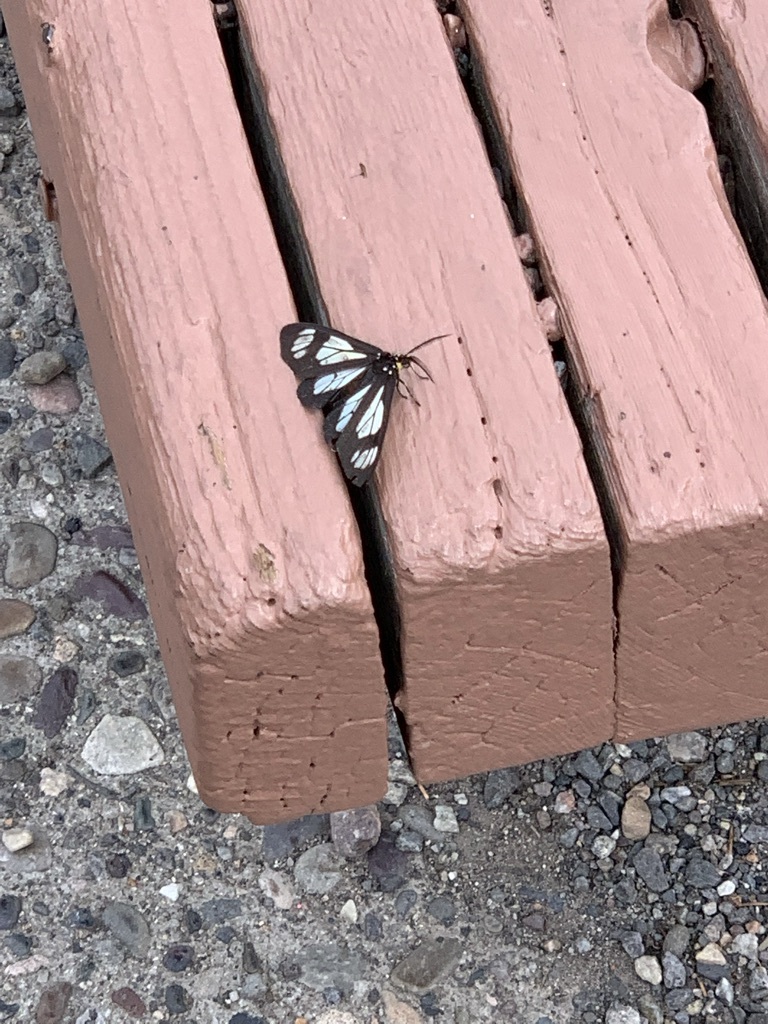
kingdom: Animalia
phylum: Arthropoda
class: Insecta
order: Lepidoptera
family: Erebidae
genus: Gnophaela
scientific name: Gnophaela vermiculata
